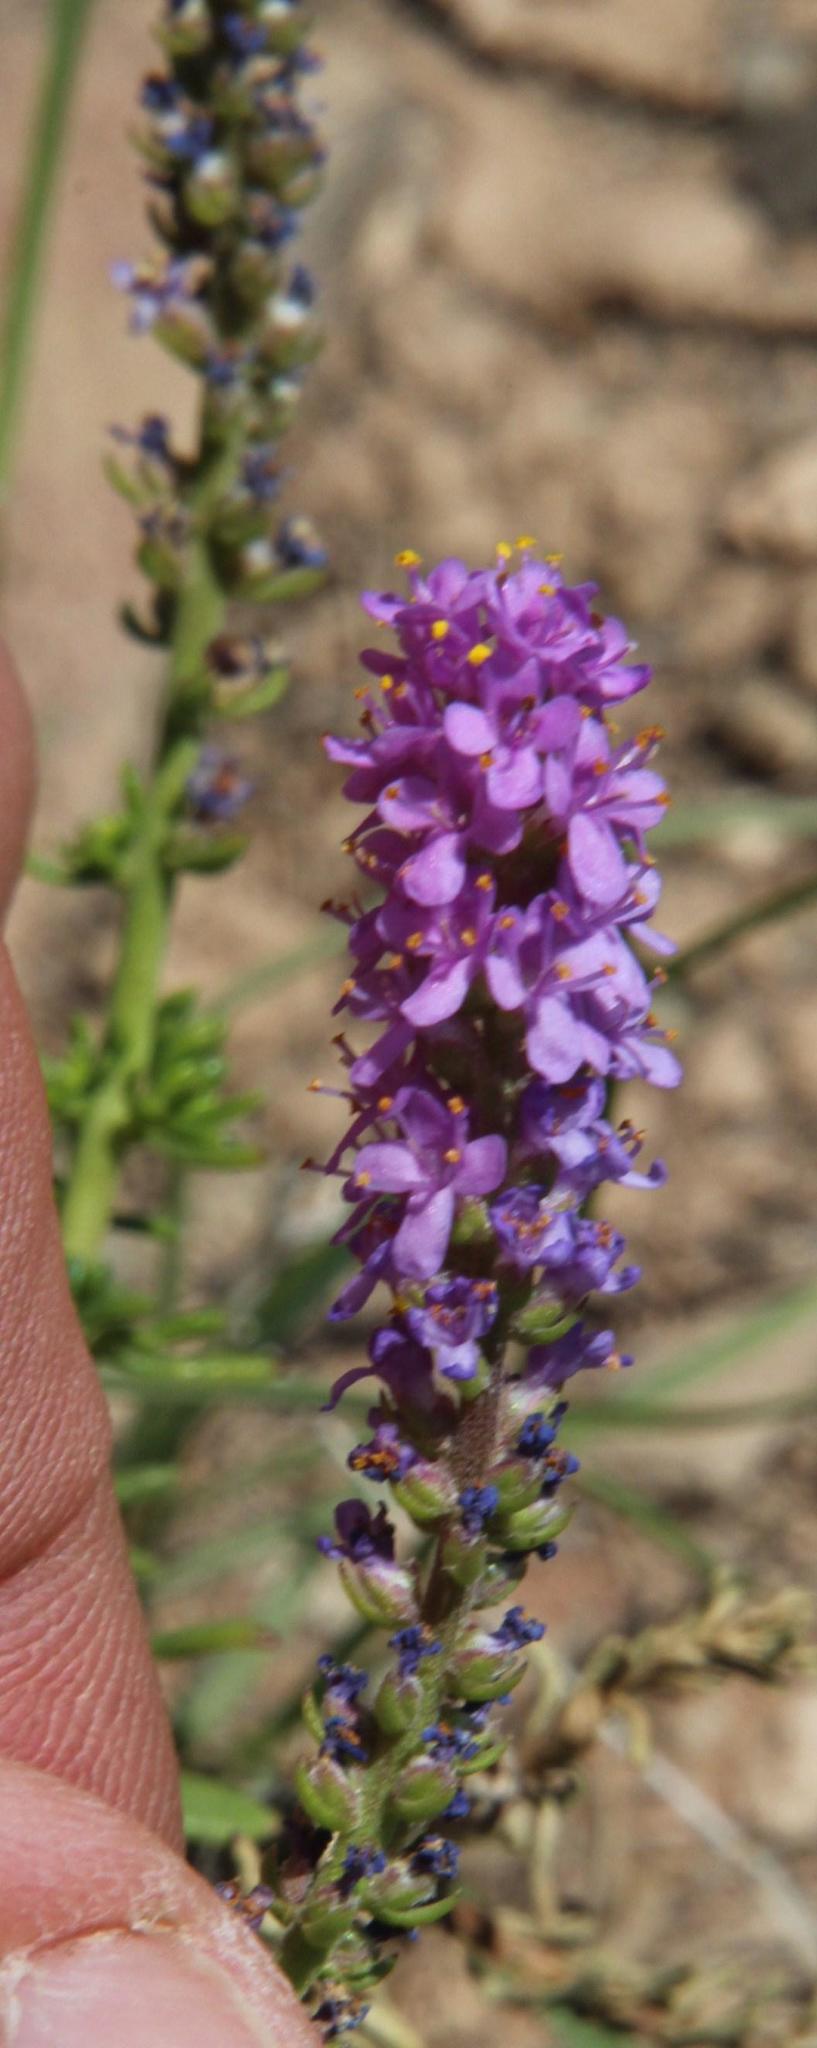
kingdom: Plantae
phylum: Tracheophyta
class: Magnoliopsida
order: Lamiales
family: Scrophulariaceae
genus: Selago
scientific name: Selago geniculata
